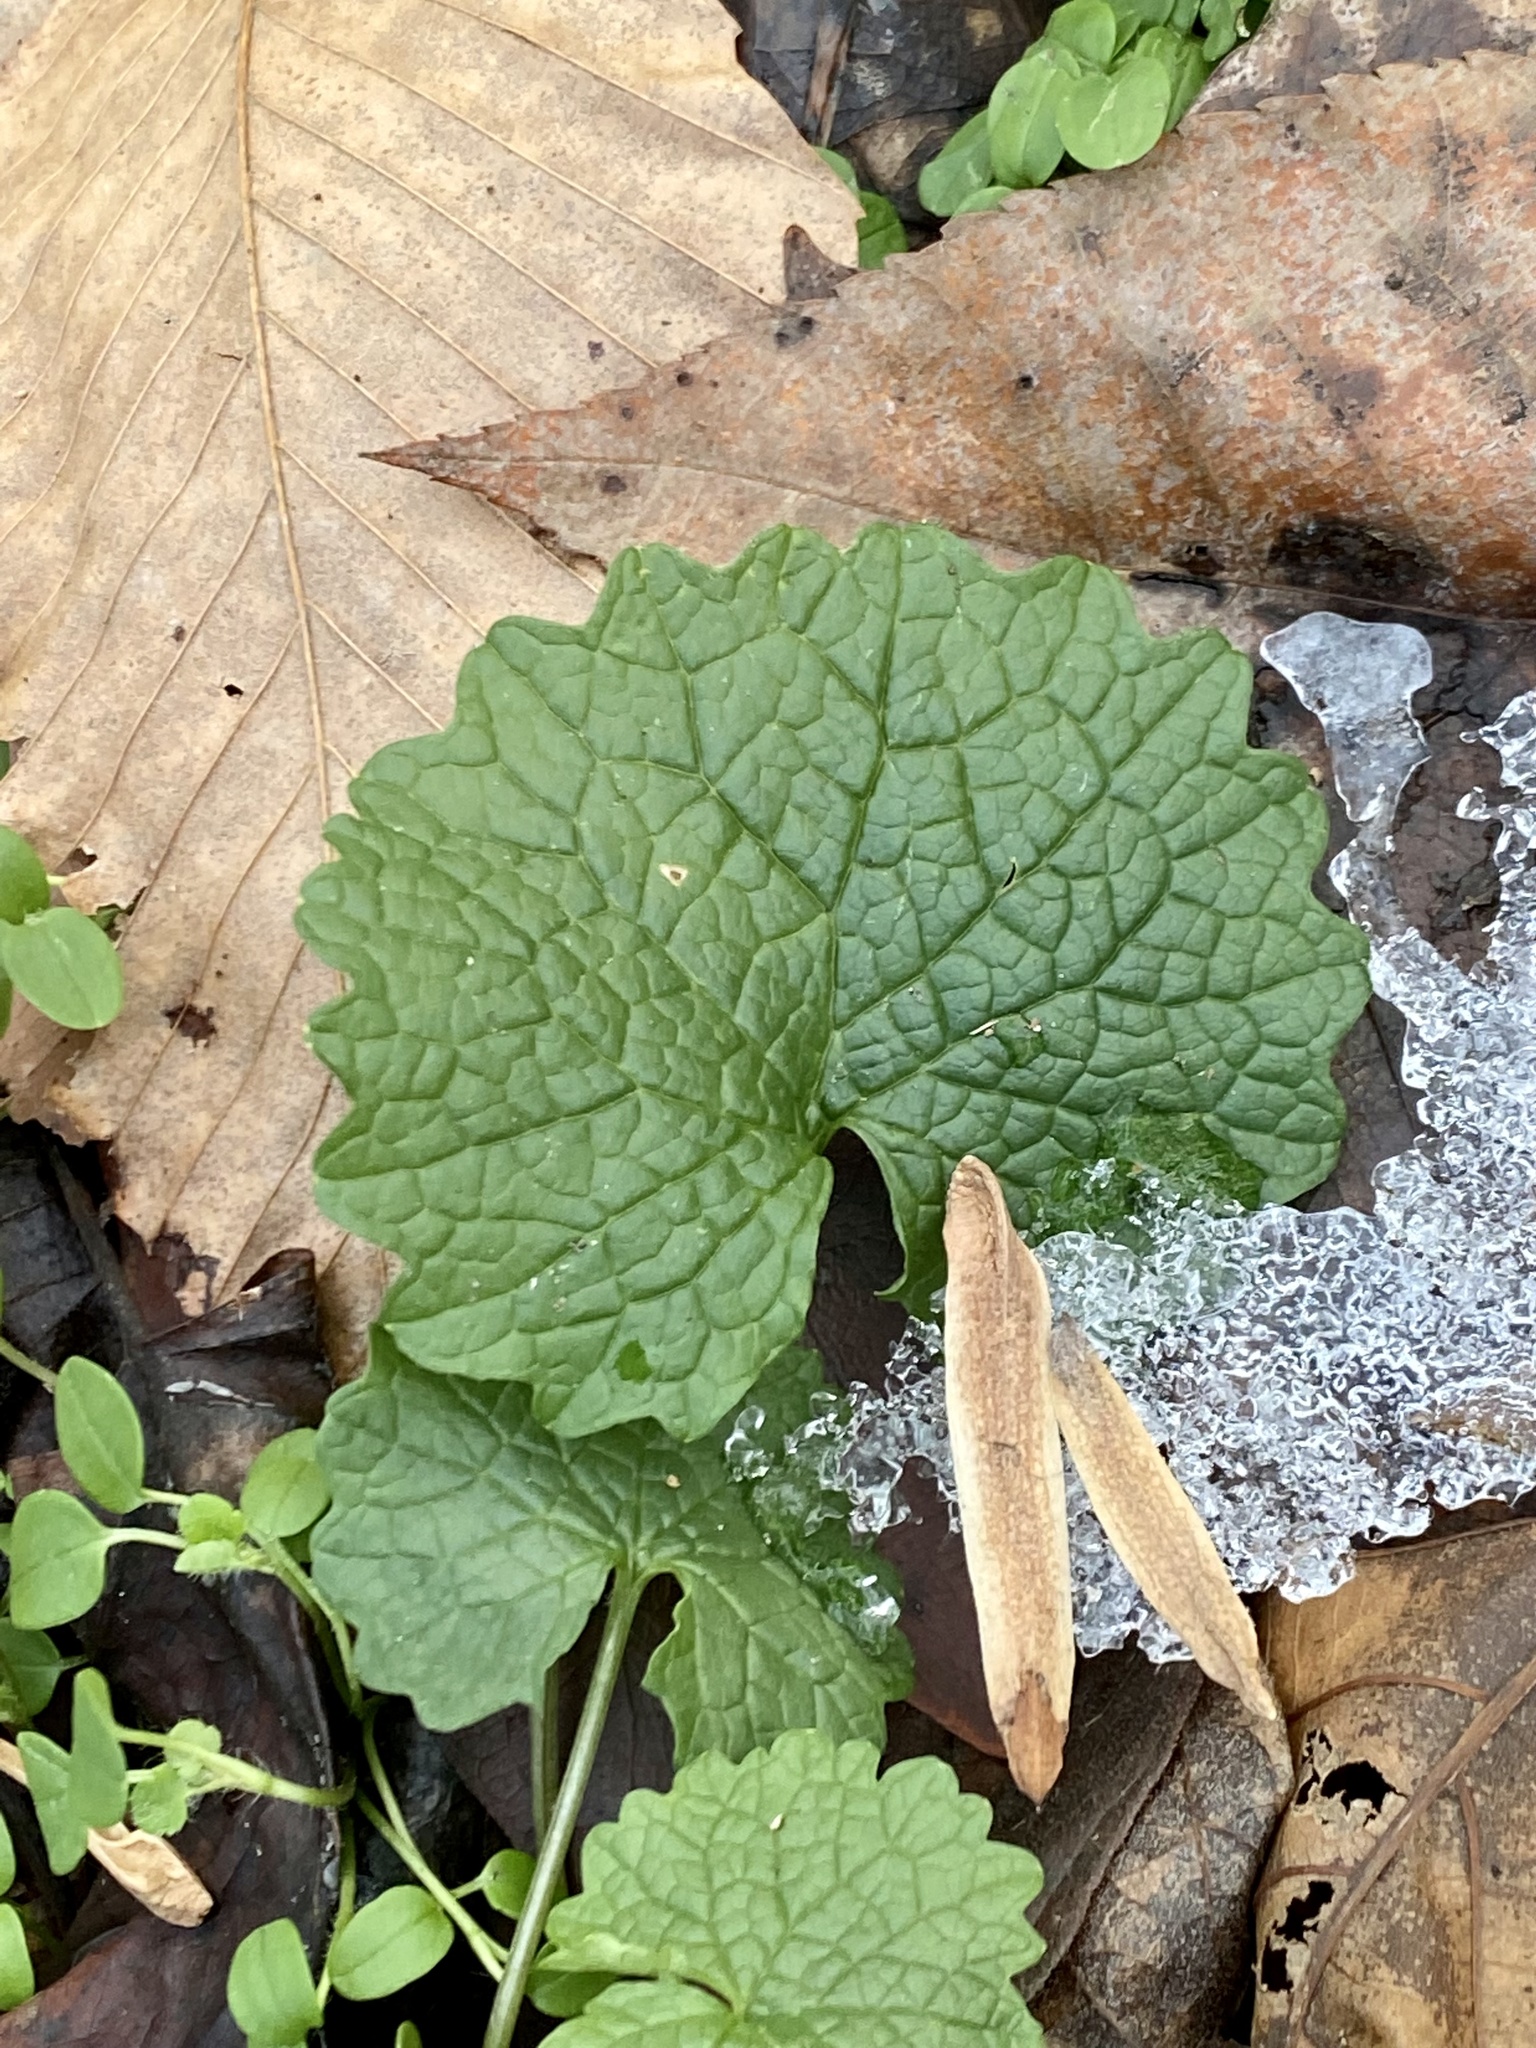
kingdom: Plantae
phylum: Tracheophyta
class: Magnoliopsida
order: Brassicales
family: Brassicaceae
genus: Alliaria
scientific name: Alliaria petiolata
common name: Garlic mustard
